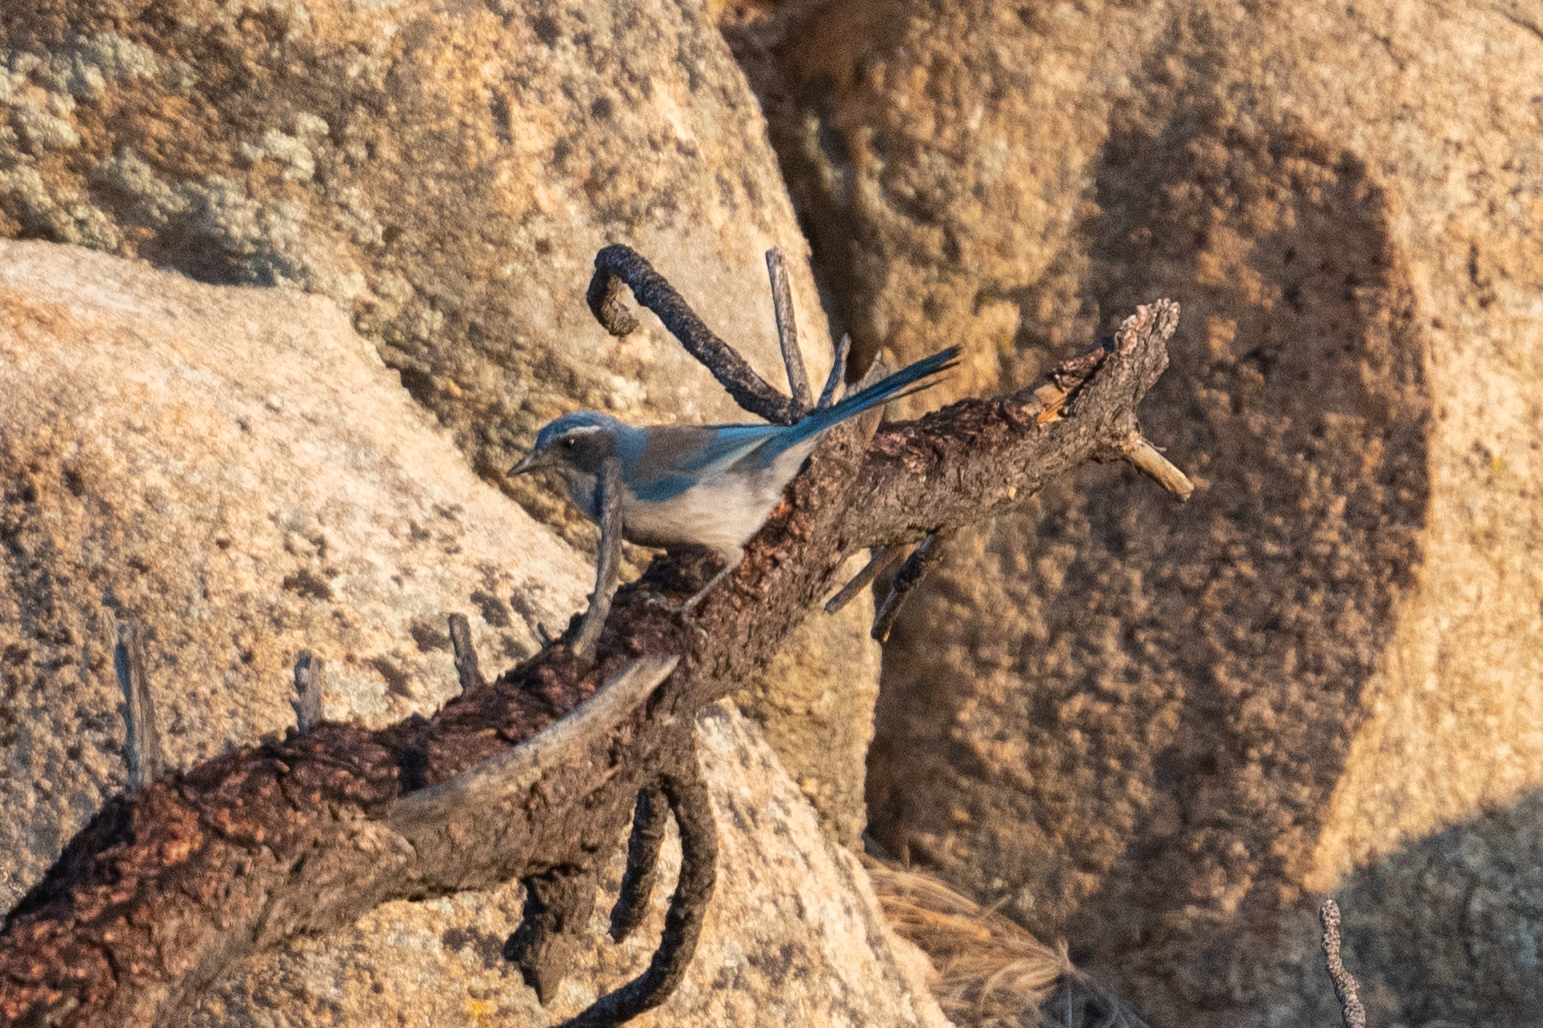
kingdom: Animalia
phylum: Chordata
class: Aves
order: Passeriformes
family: Corvidae
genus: Aphelocoma
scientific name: Aphelocoma californica
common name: California scrub-jay
